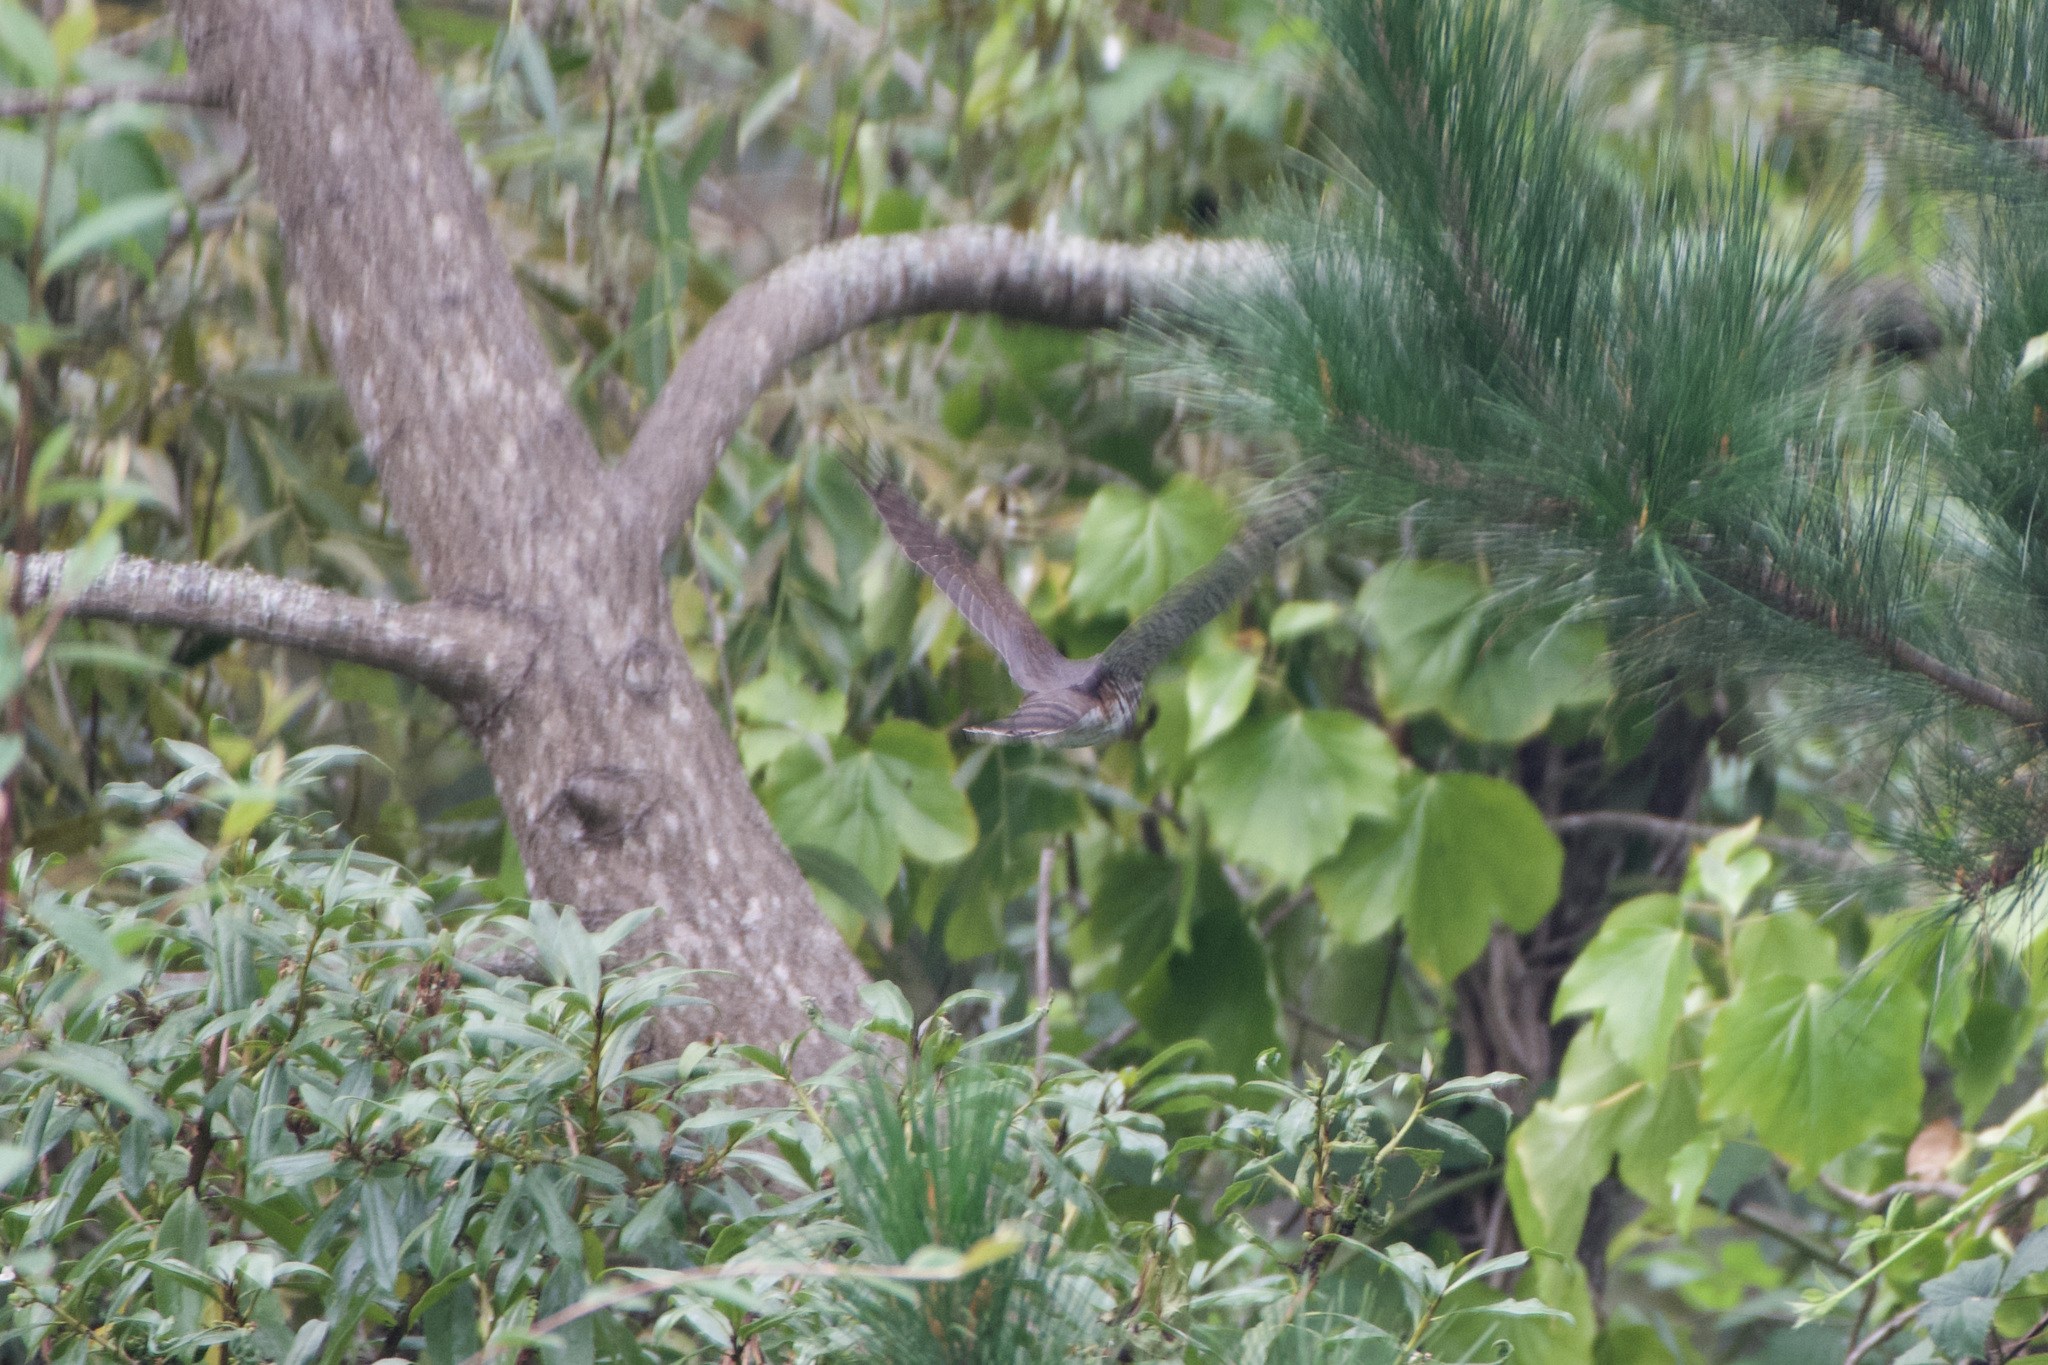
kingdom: Animalia
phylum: Chordata
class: Aves
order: Accipitriformes
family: Accipitridae
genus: Accipiter
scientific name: Accipiter striatus
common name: Sharp-shinned hawk
